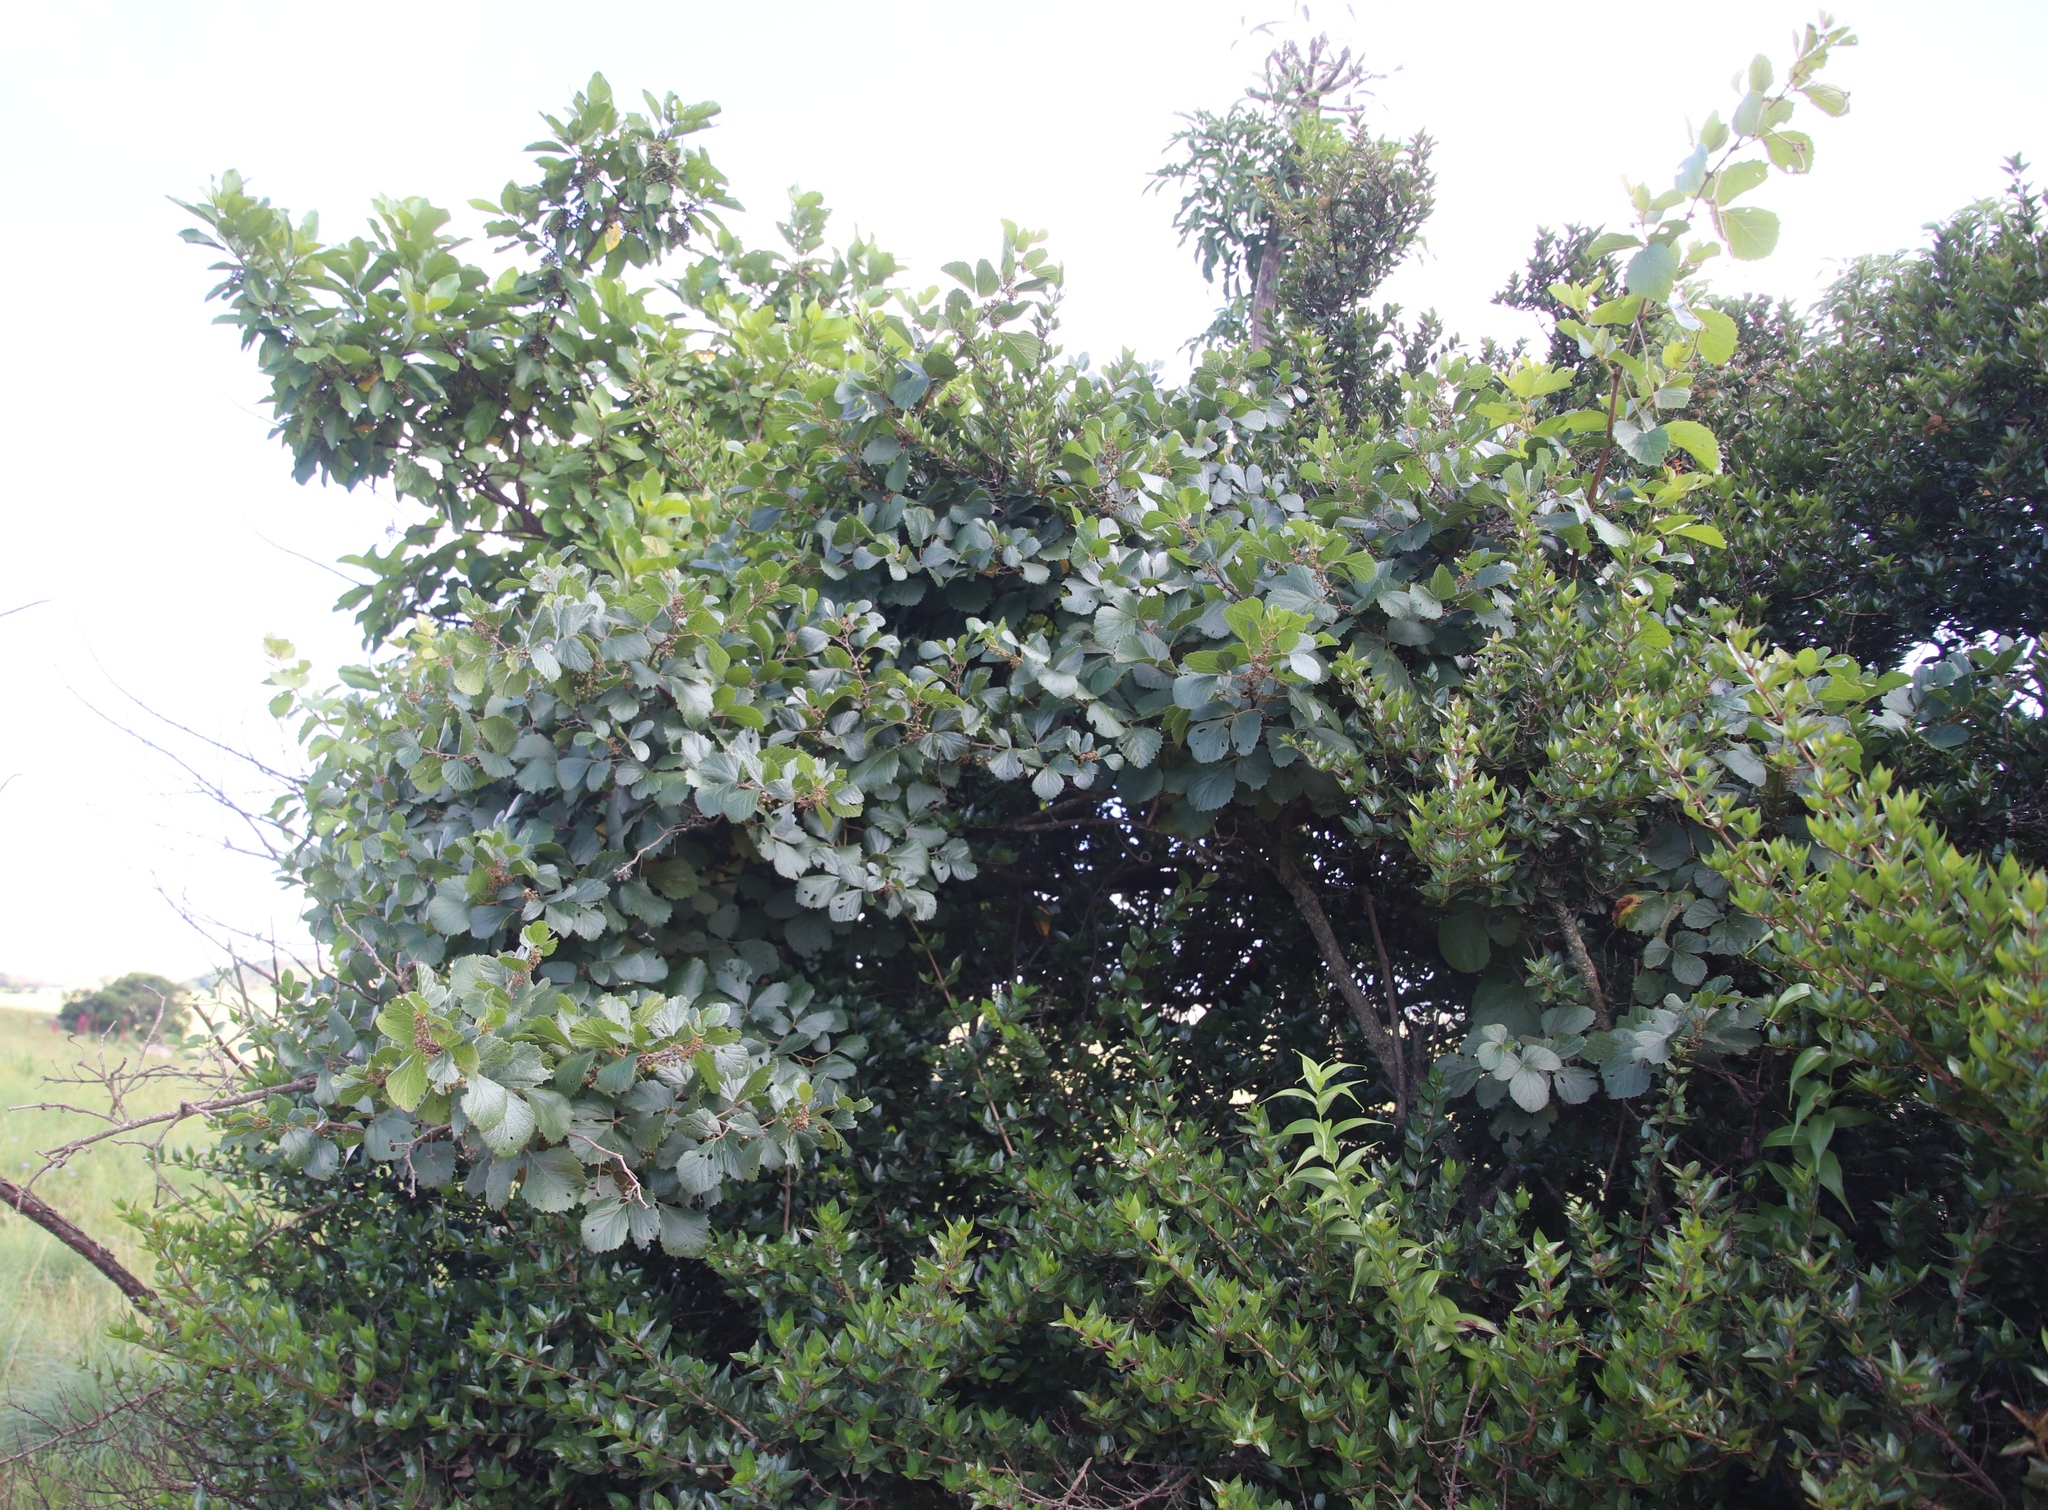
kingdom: Plantae
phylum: Tracheophyta
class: Magnoliopsida
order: Vitales
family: Vitaceae
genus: Rhoicissus
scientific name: Rhoicissus tridentata
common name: Common forest grape
